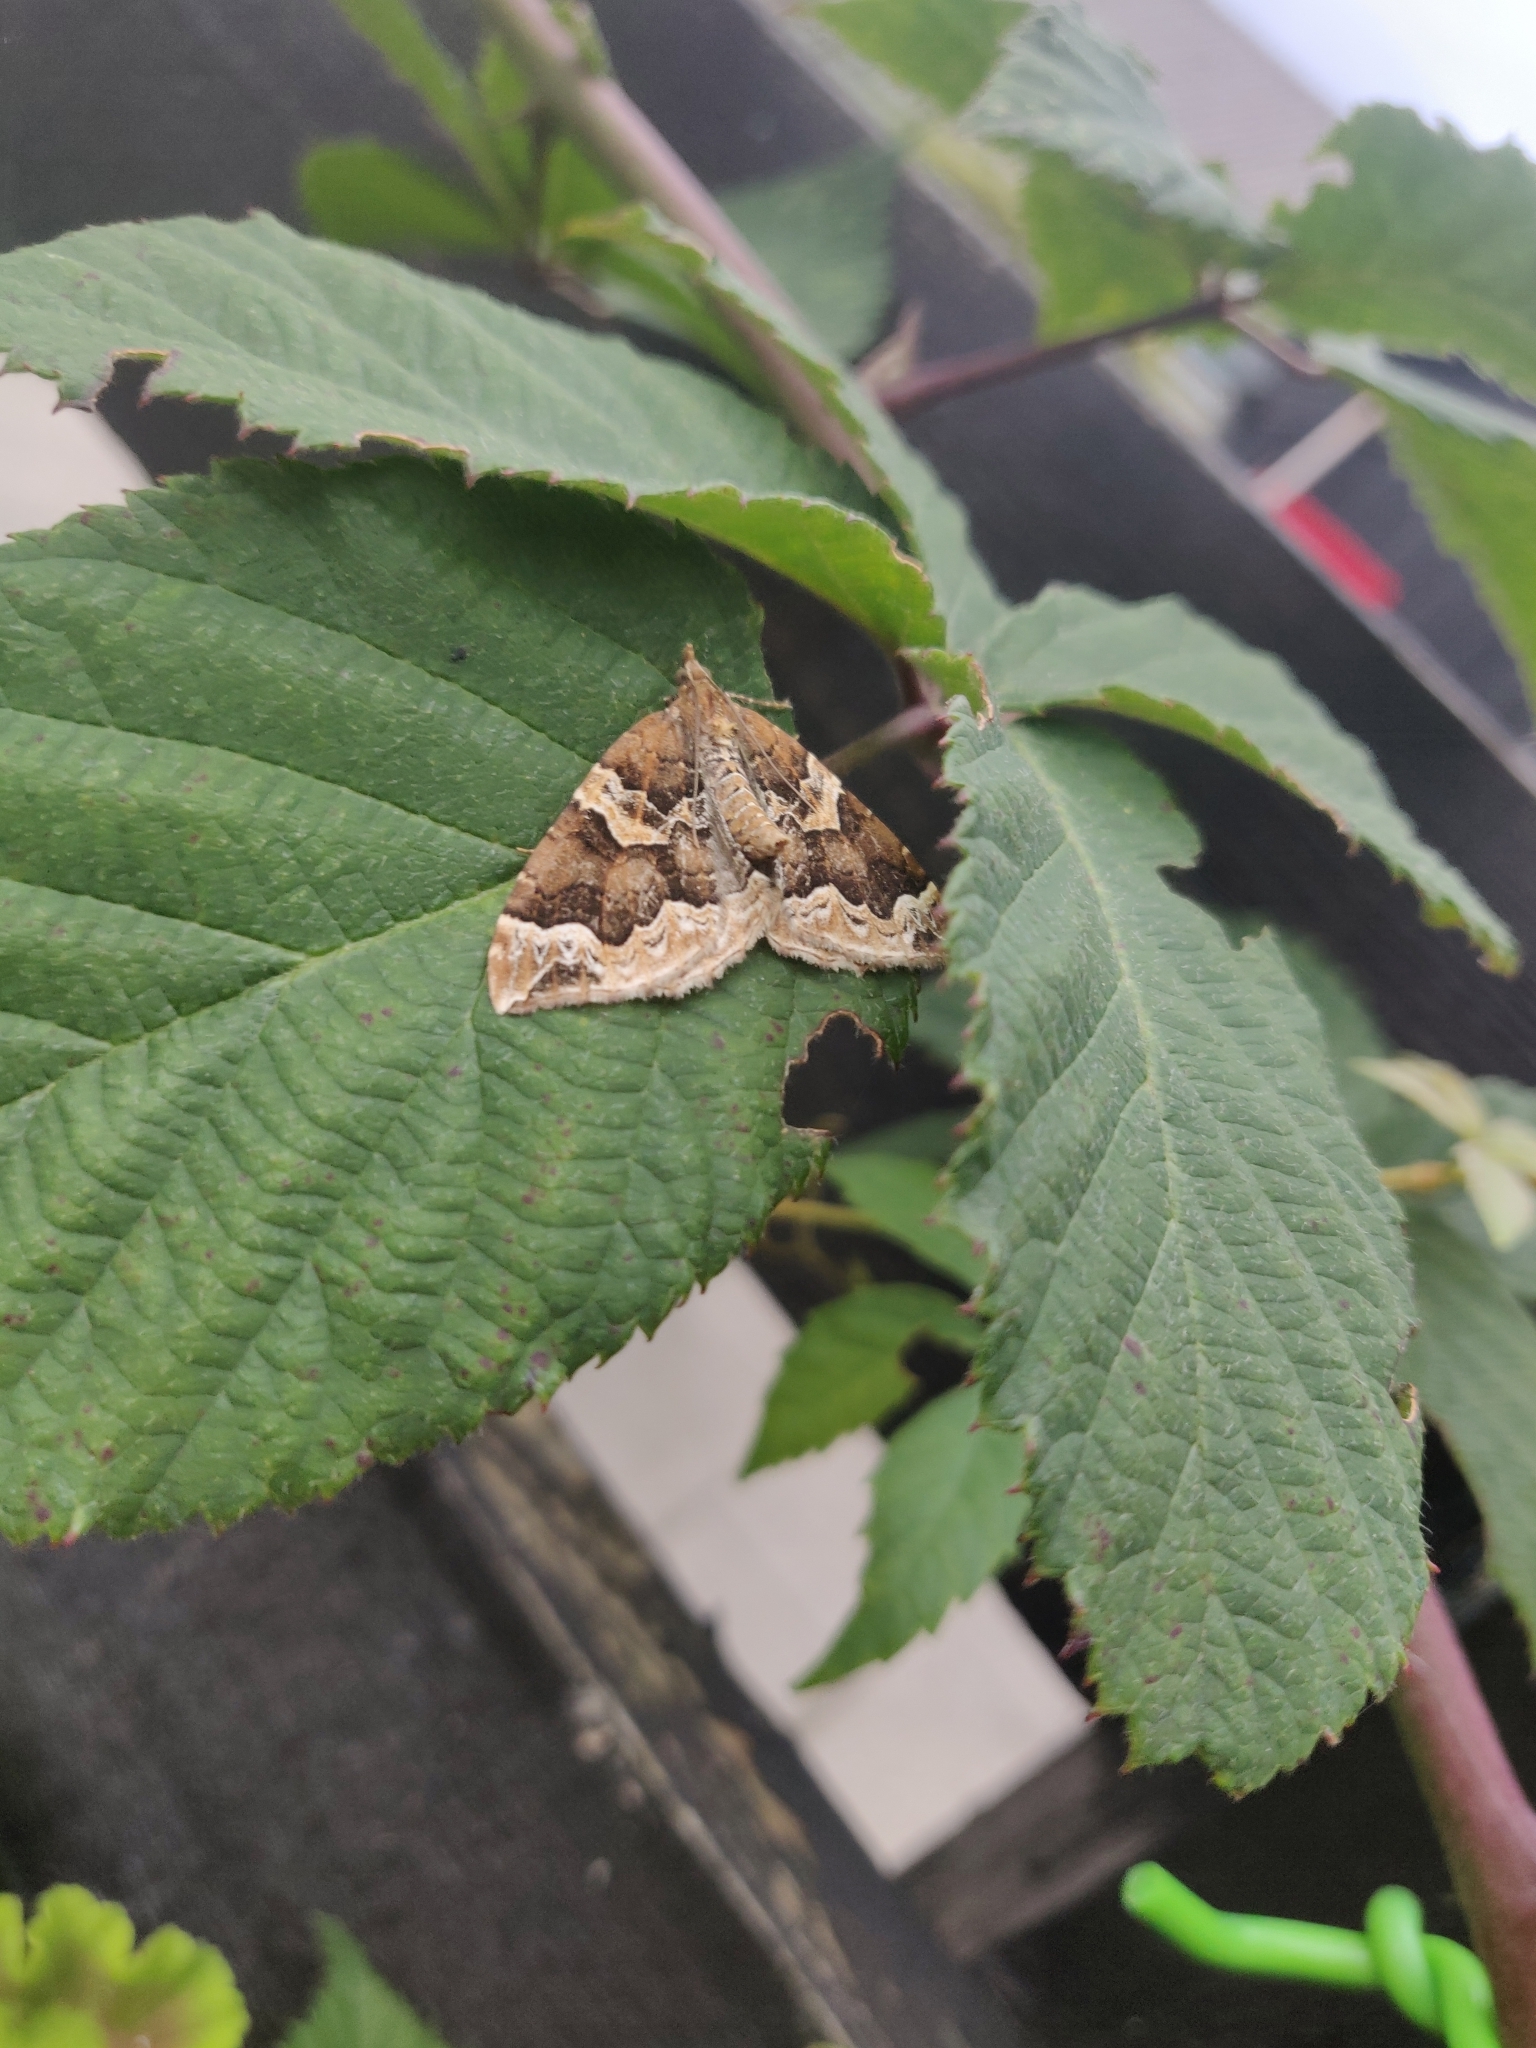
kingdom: Animalia
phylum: Arthropoda
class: Insecta
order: Lepidoptera
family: Geometridae
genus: Eulithis
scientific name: Eulithis prunata
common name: Phoenix
